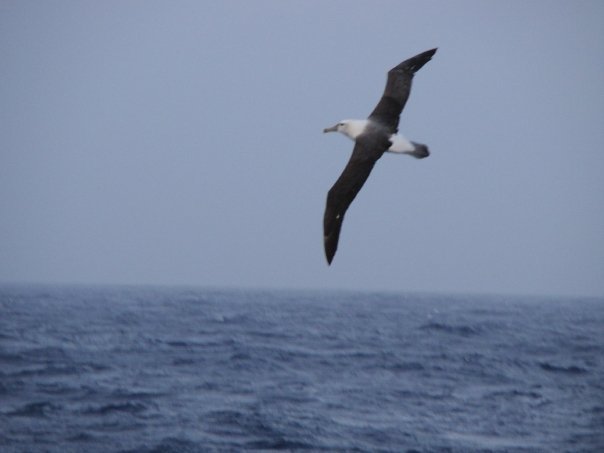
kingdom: Animalia
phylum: Chordata
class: Aves
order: Procellariiformes
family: Diomedeidae
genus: Thalassarche
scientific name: Thalassarche cauta
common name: Shy albatross
